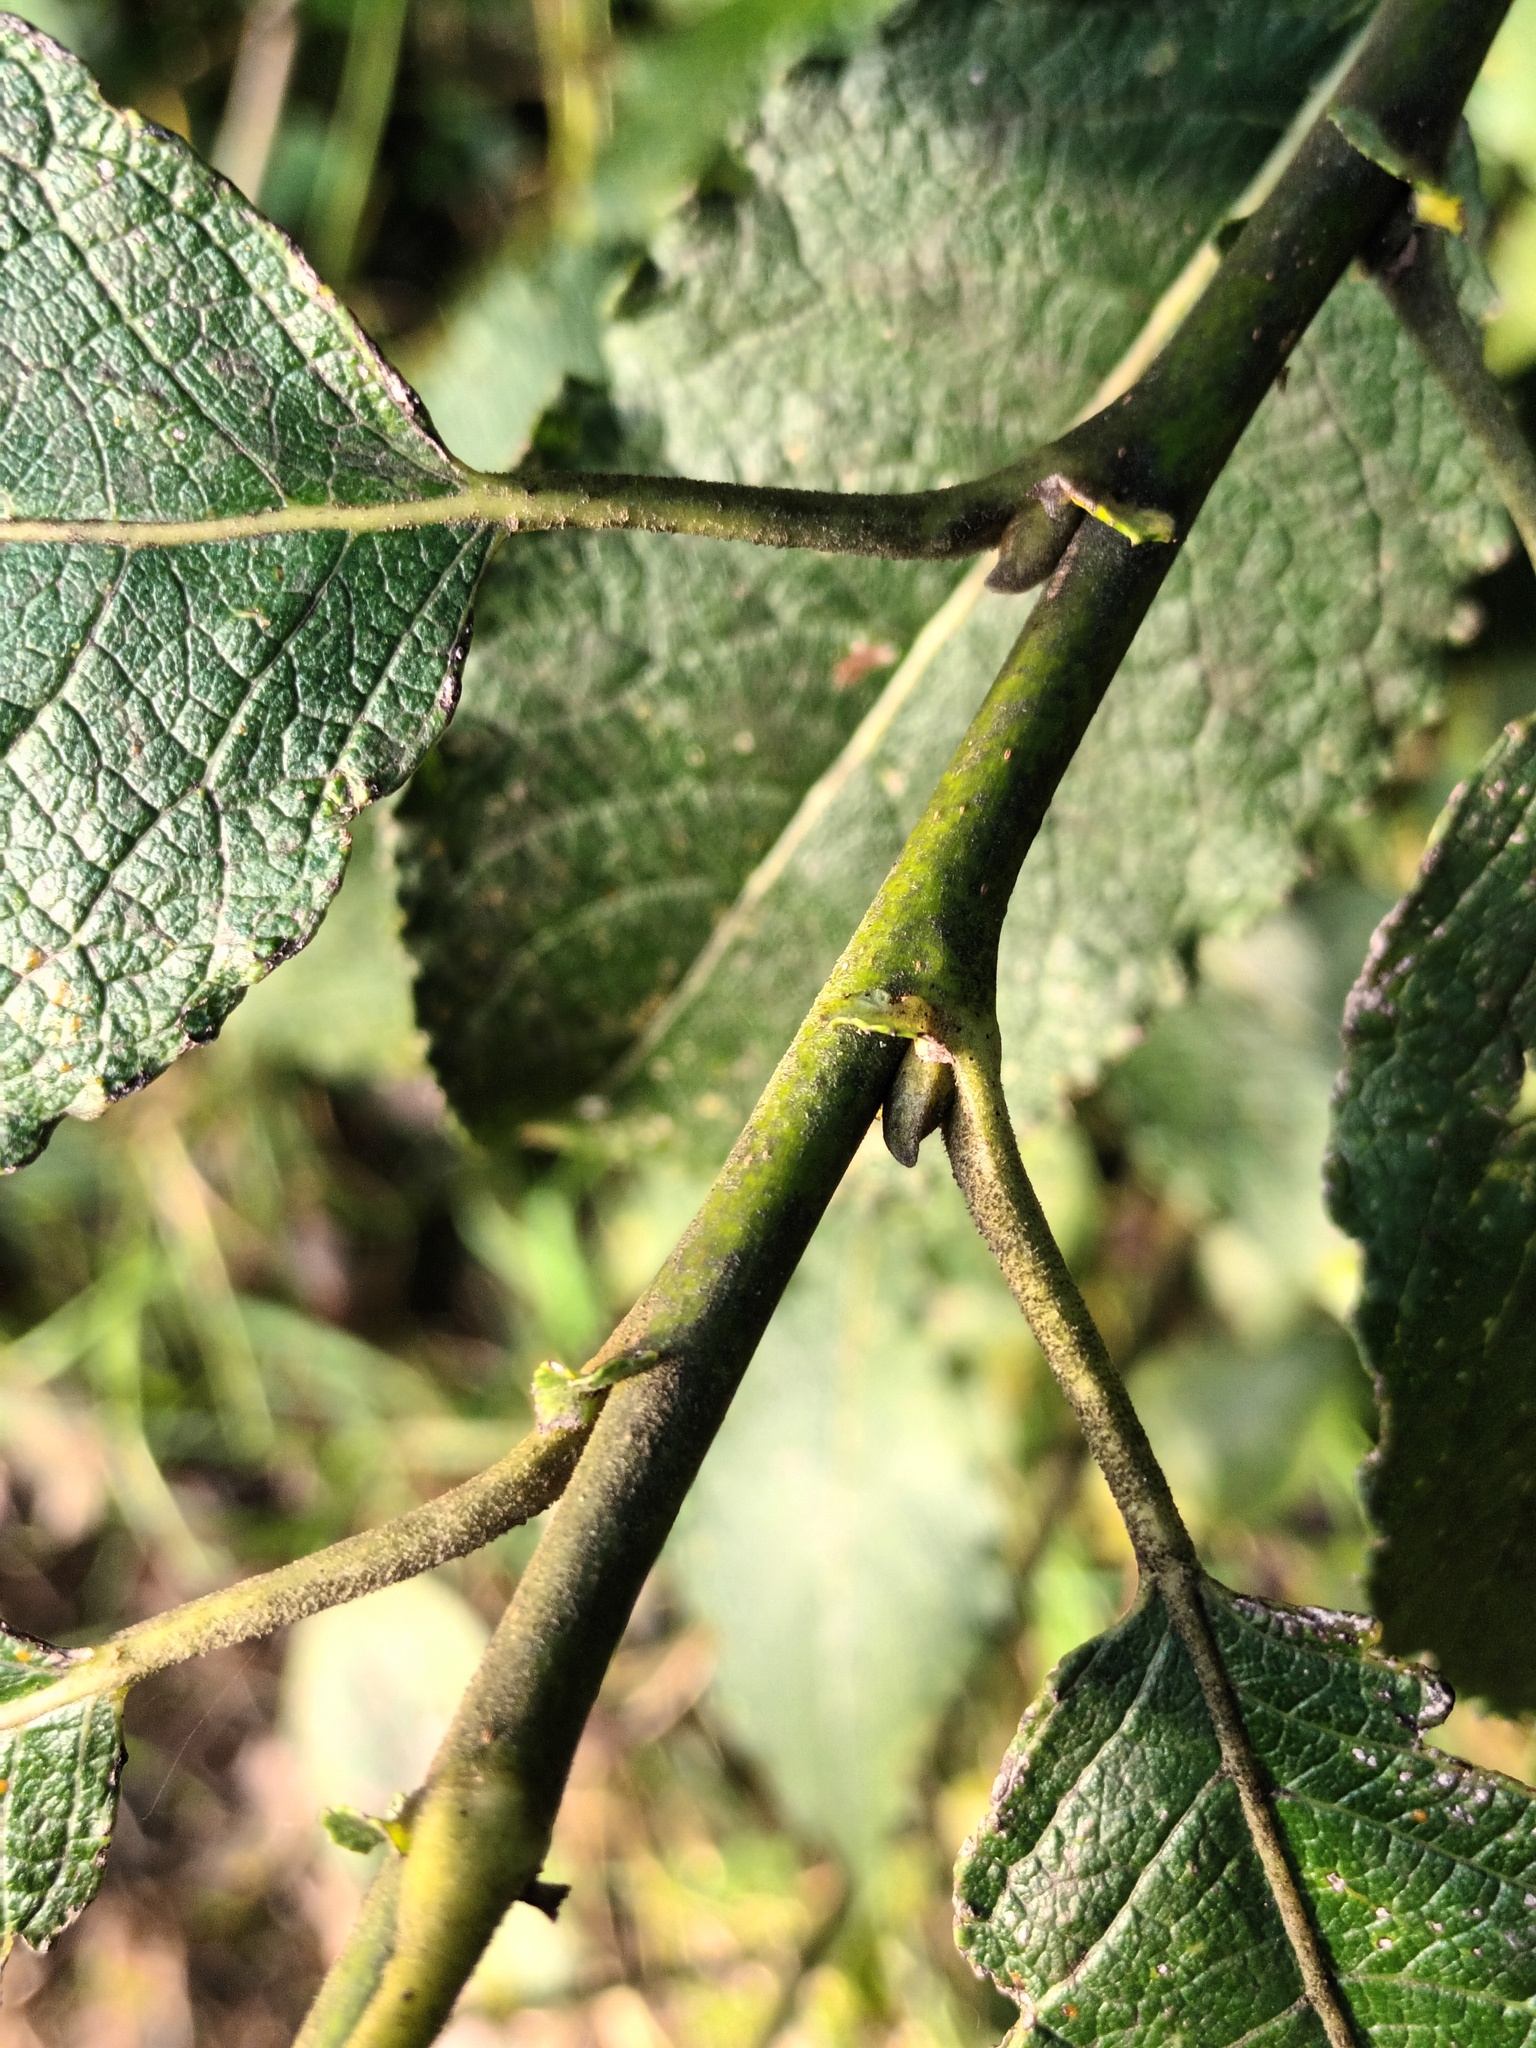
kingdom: Plantae
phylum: Tracheophyta
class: Magnoliopsida
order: Malpighiales
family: Salicaceae
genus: Salix
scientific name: Salix caprea
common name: Goat willow
